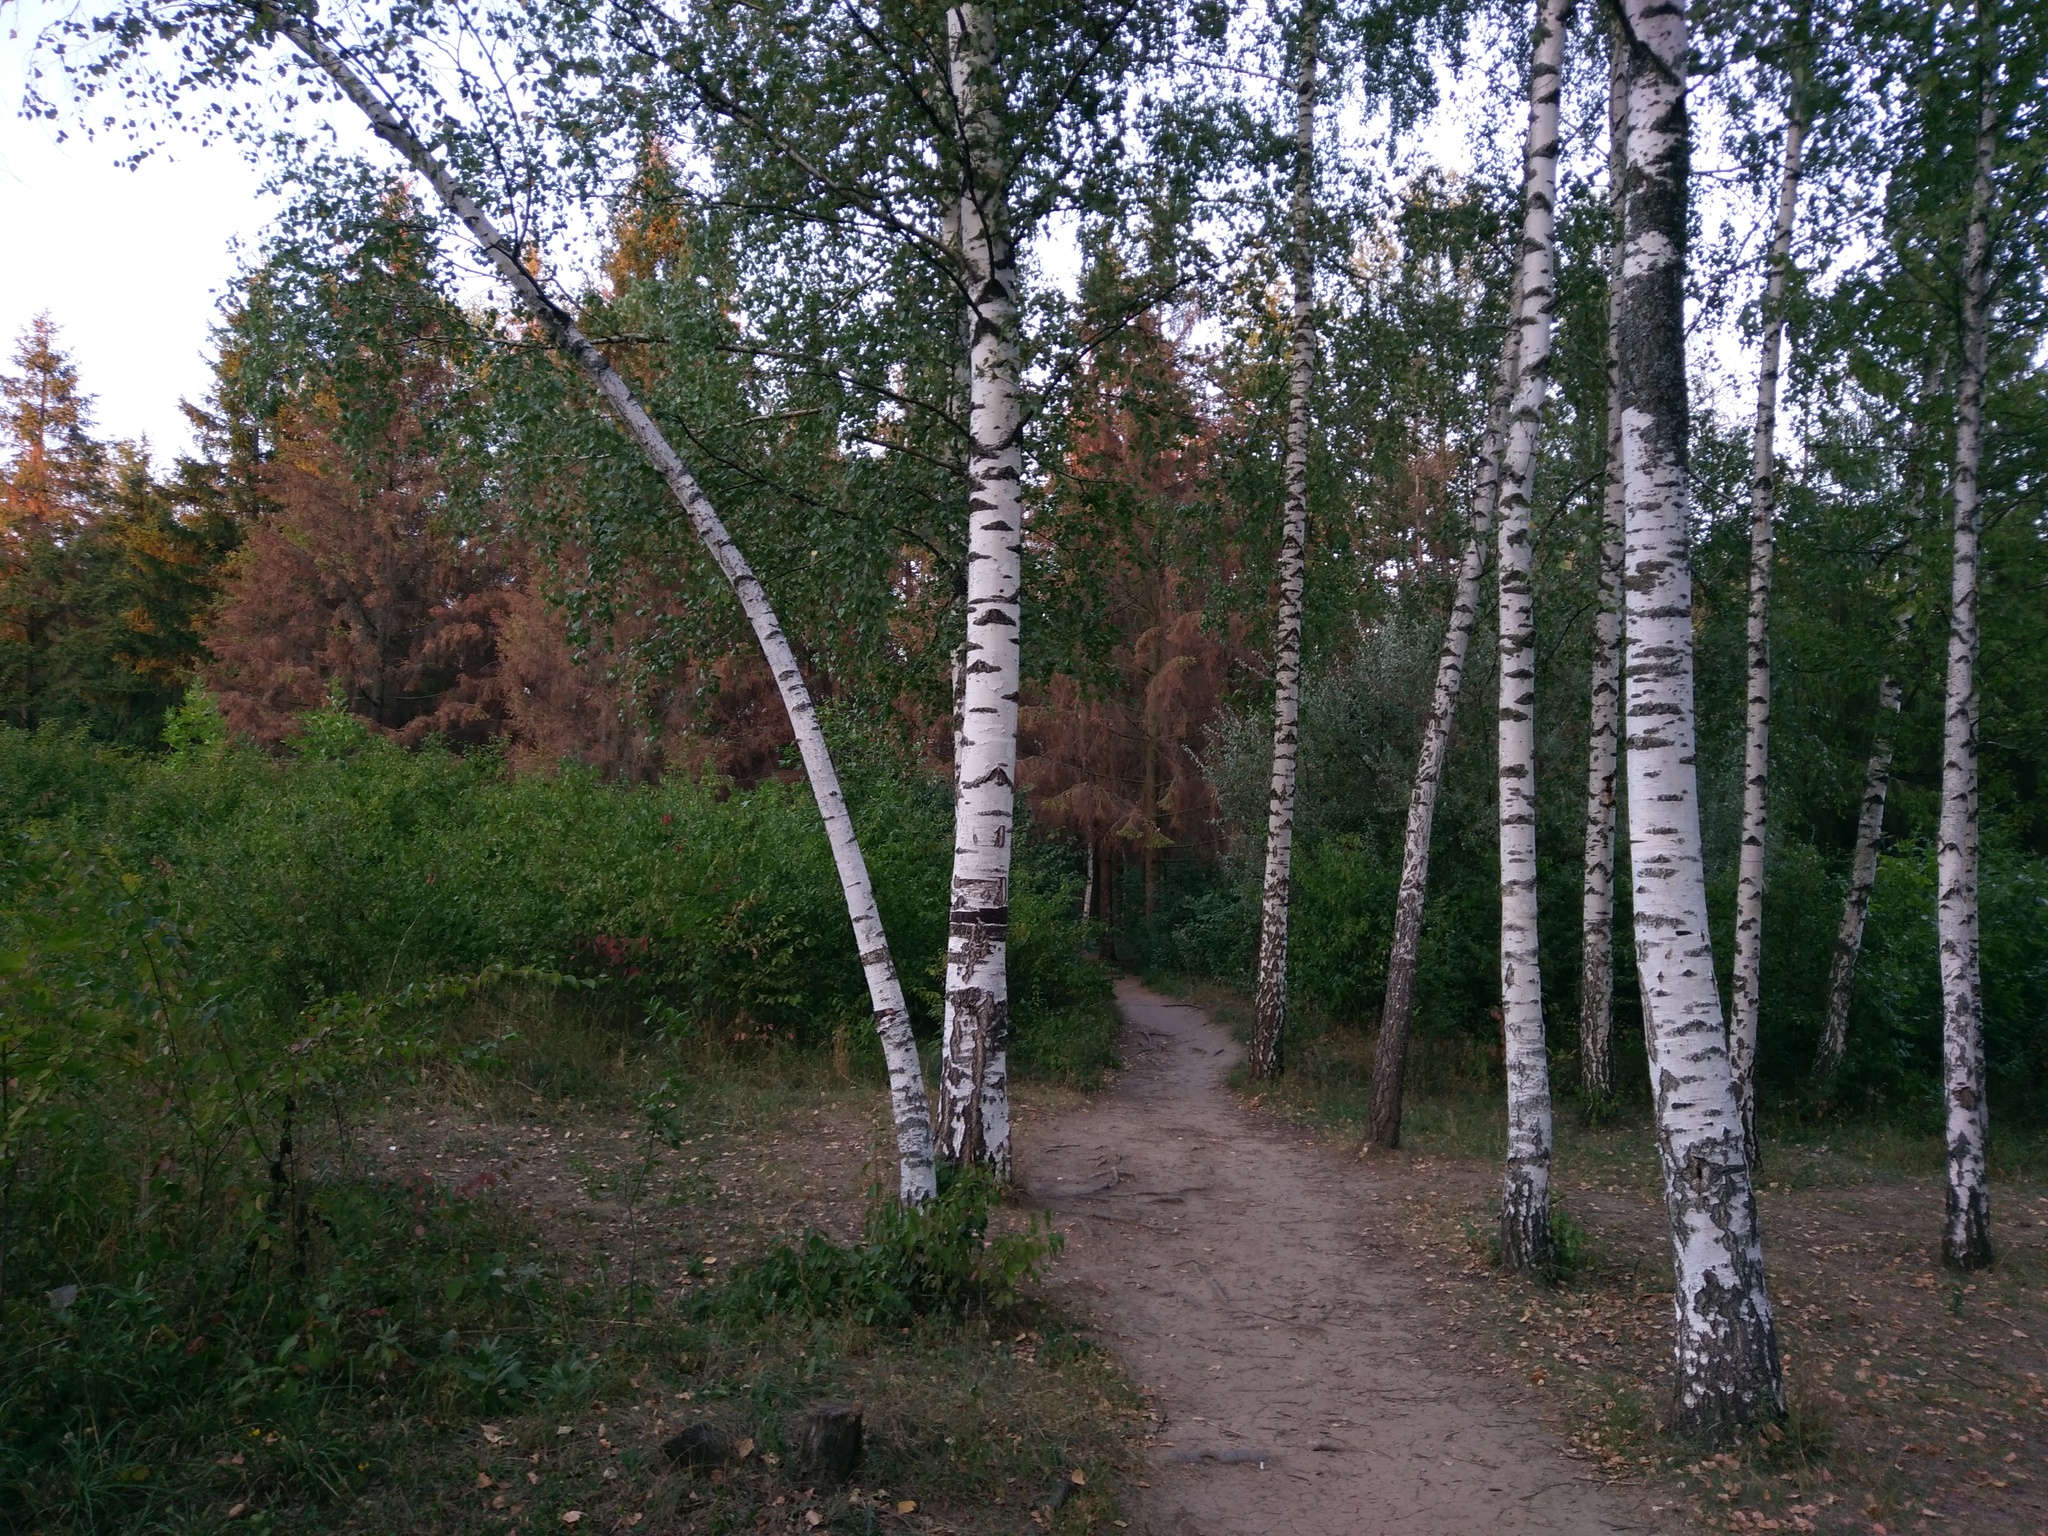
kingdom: Plantae
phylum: Tracheophyta
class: Magnoliopsida
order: Fagales
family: Betulaceae
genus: Betula
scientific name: Betula pendula
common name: Silver birch
